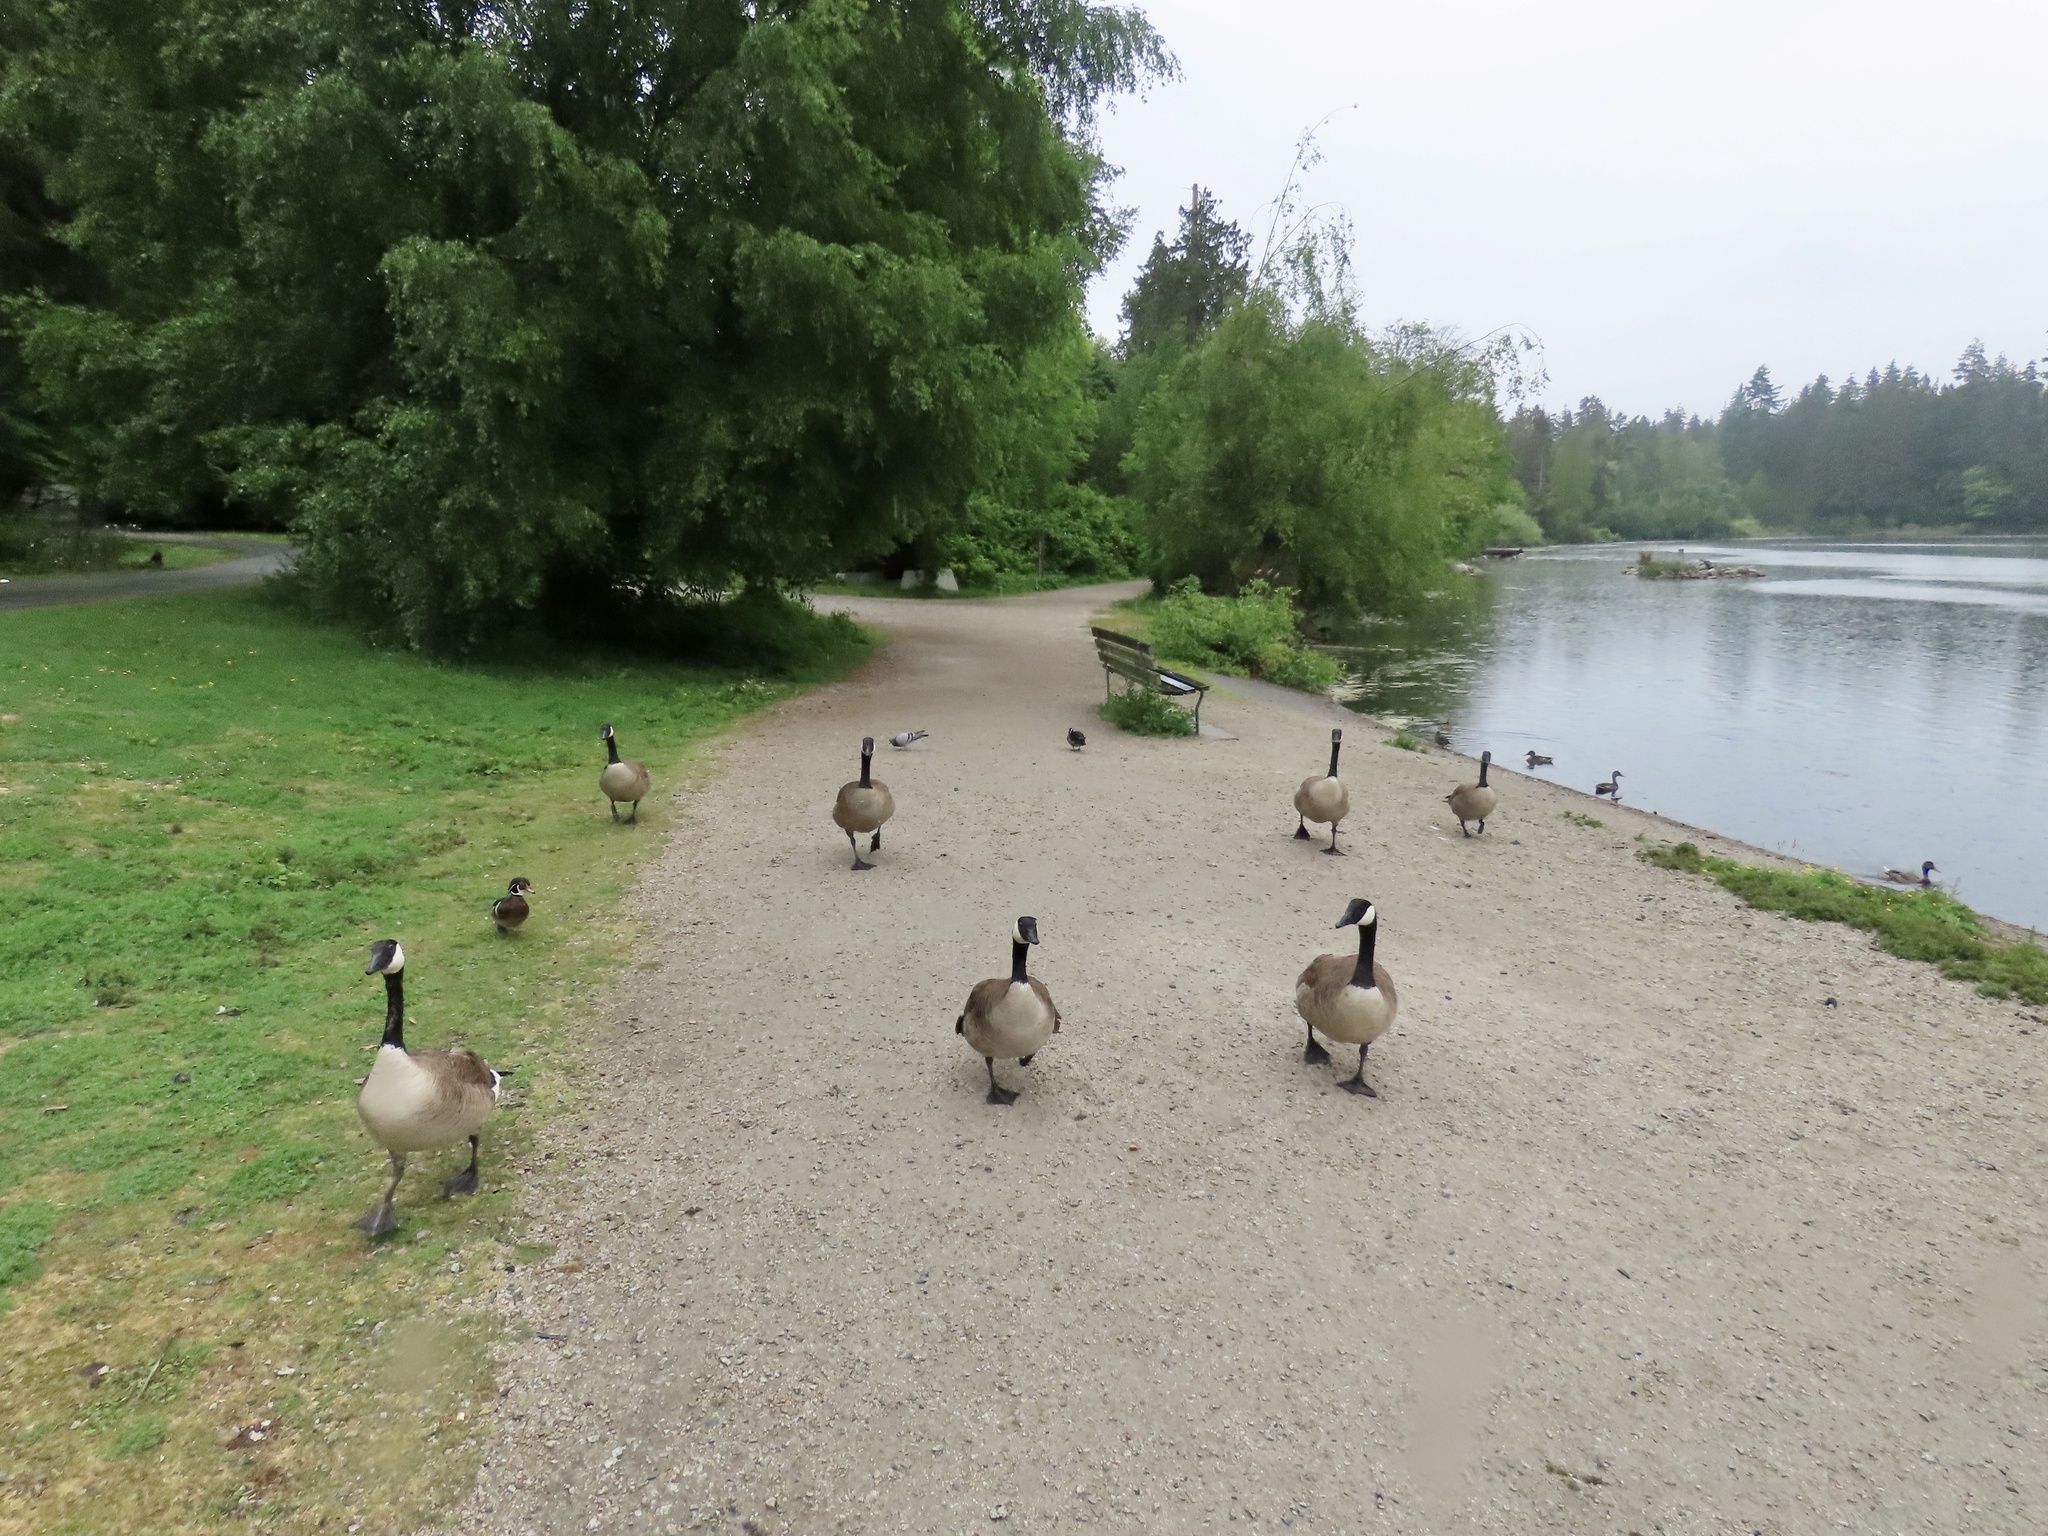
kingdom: Animalia
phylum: Chordata
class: Aves
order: Anseriformes
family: Anatidae
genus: Branta
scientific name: Branta canadensis
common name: Canada goose
